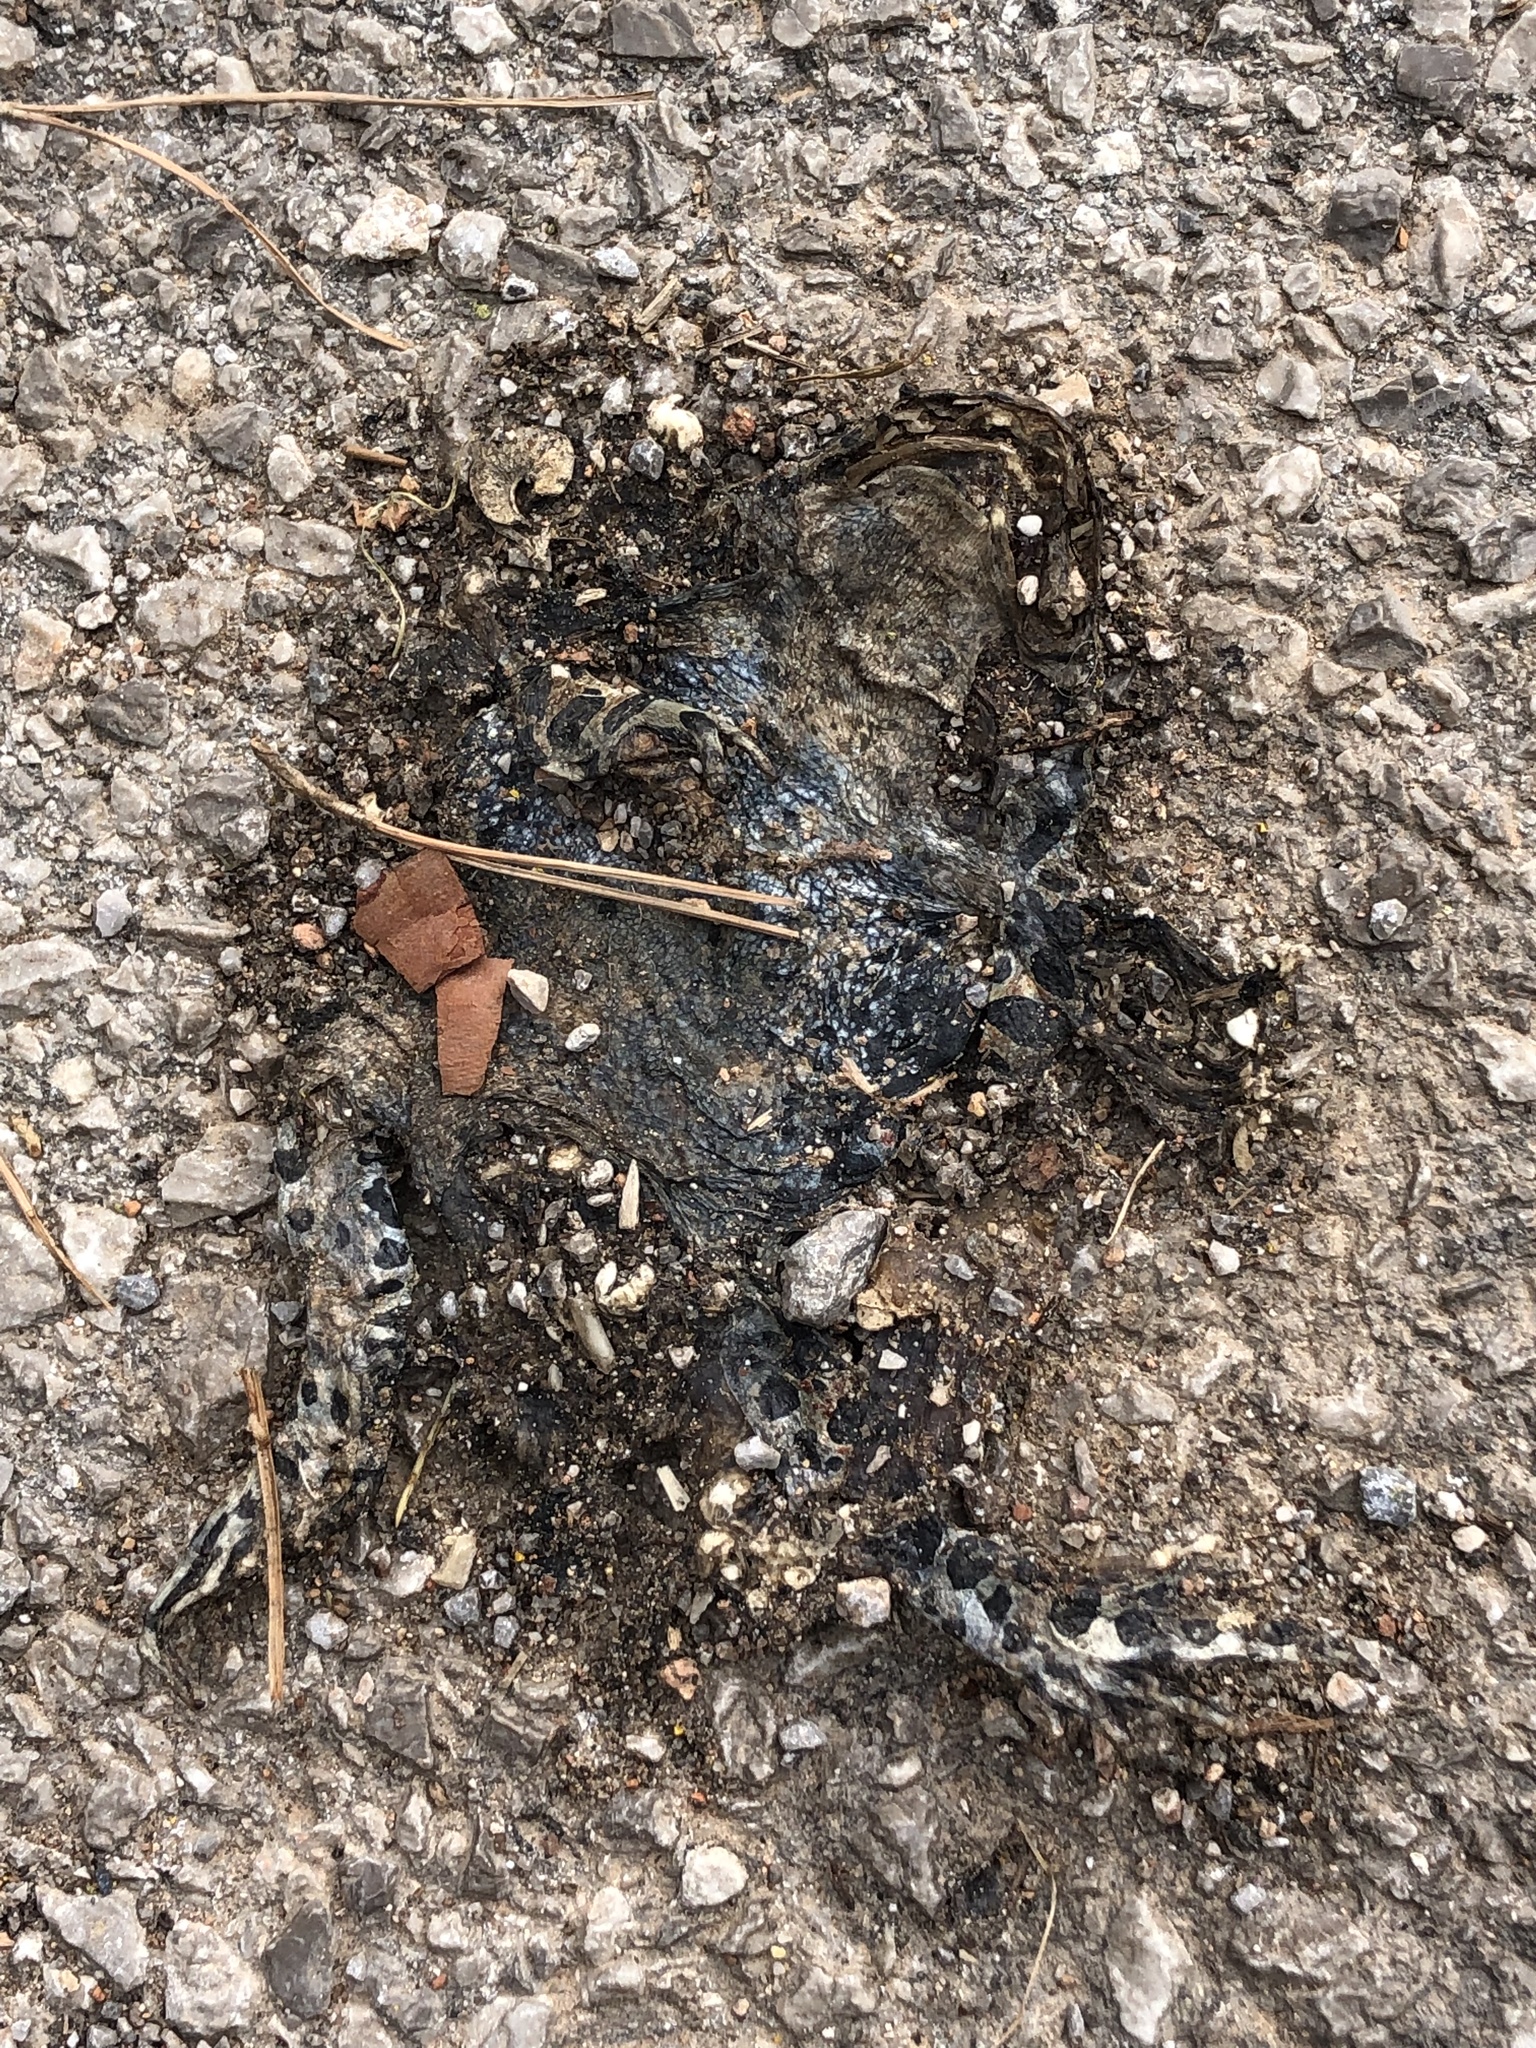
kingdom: Animalia
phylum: Chordata
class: Amphibia
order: Anura
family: Bufonidae
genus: Bufotes
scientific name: Bufotes viridis
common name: European green toad
